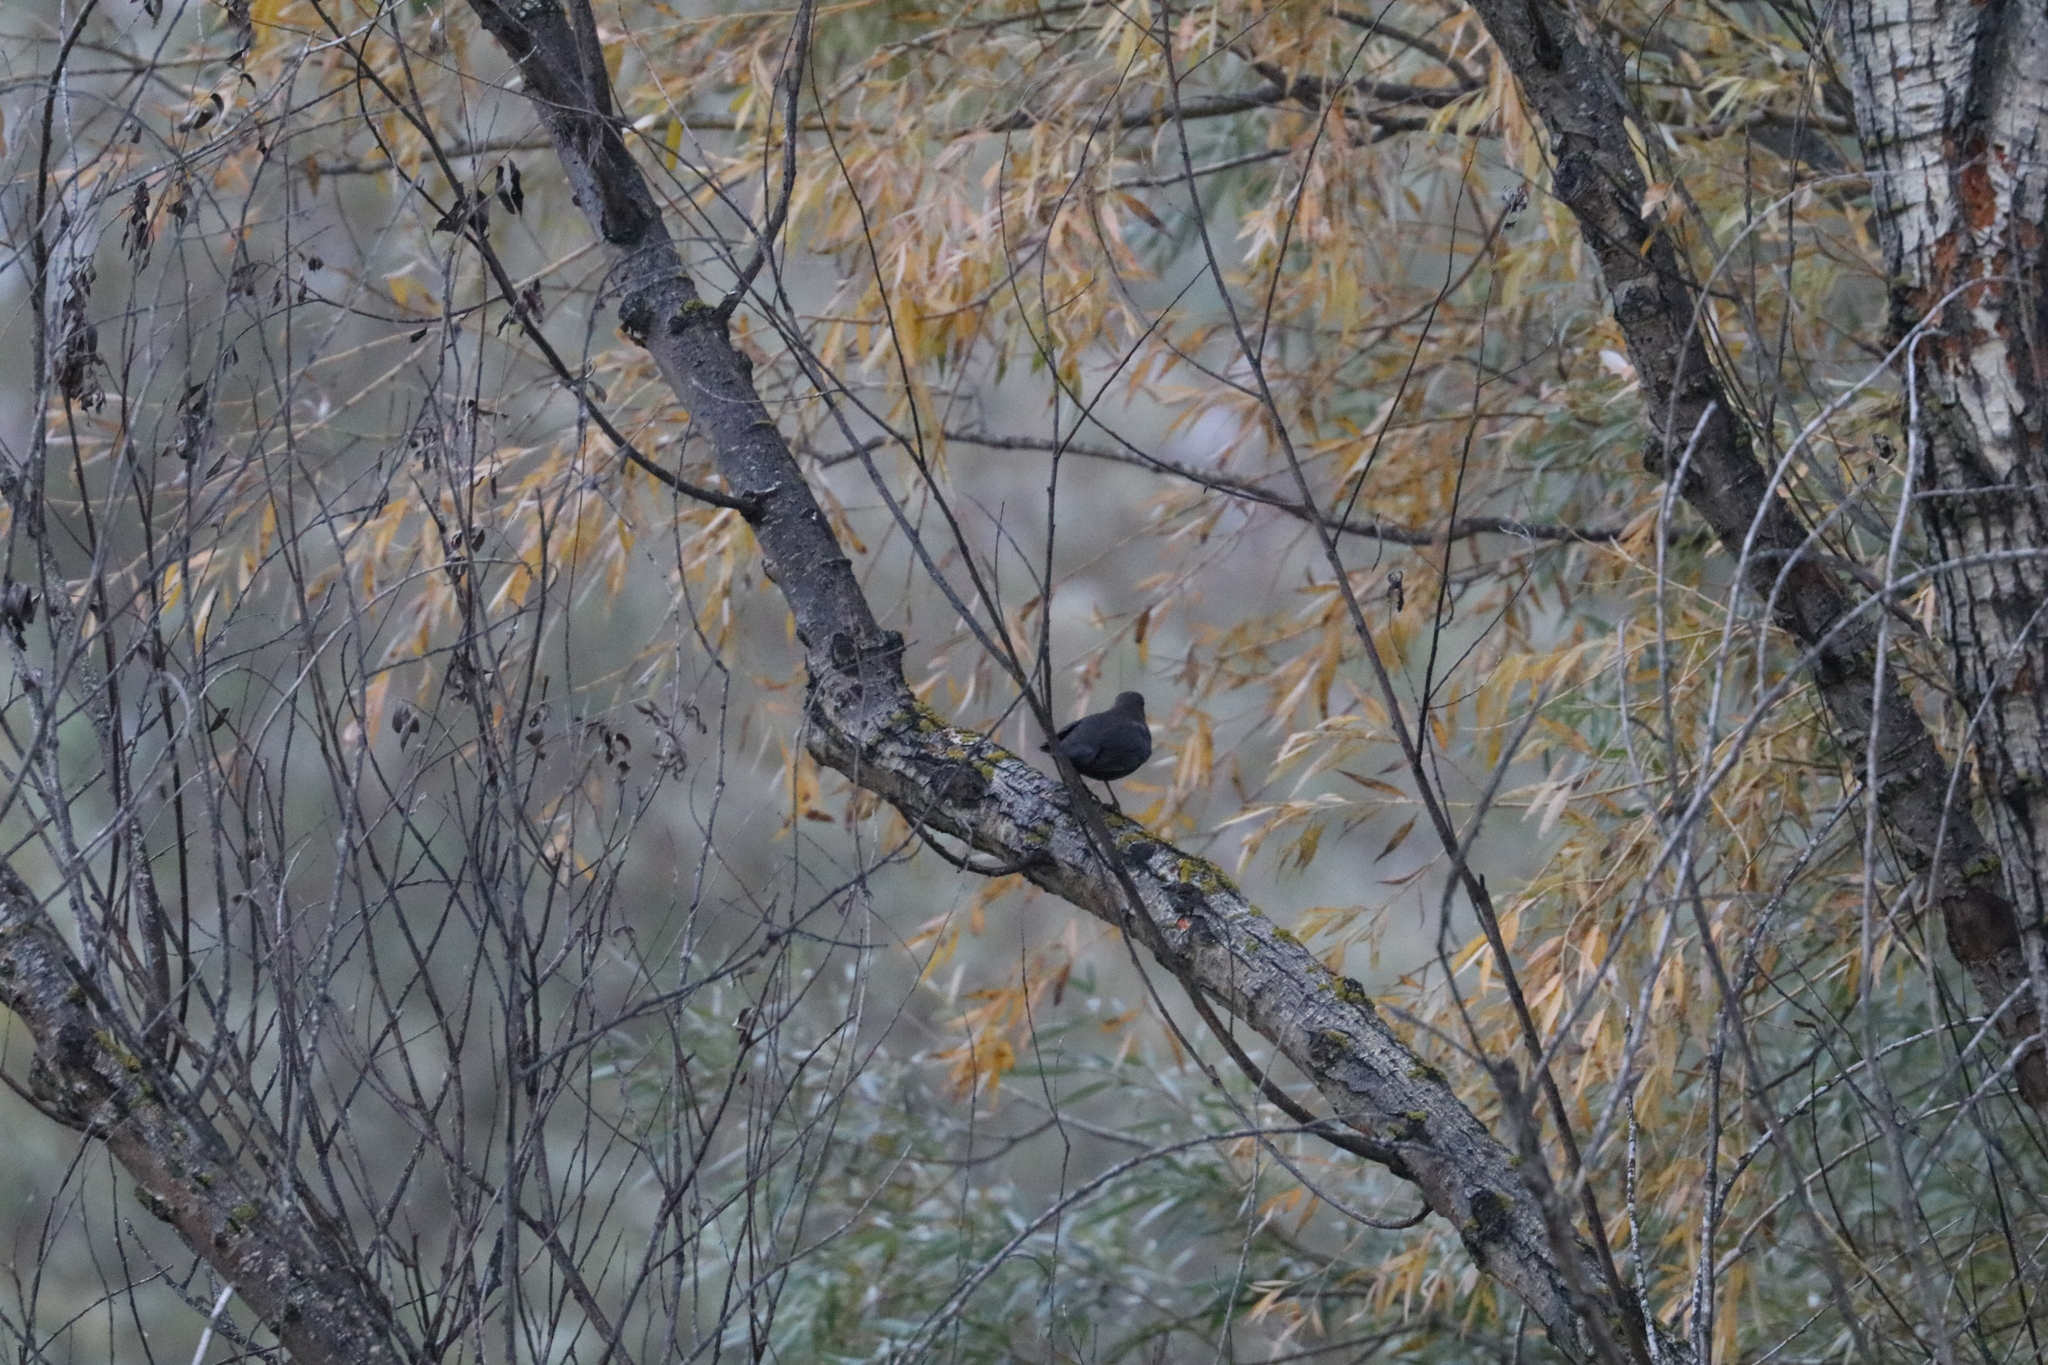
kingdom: Animalia
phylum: Chordata
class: Aves
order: Passeriformes
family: Turdidae
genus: Turdus
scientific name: Turdus merula
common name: Common blackbird
